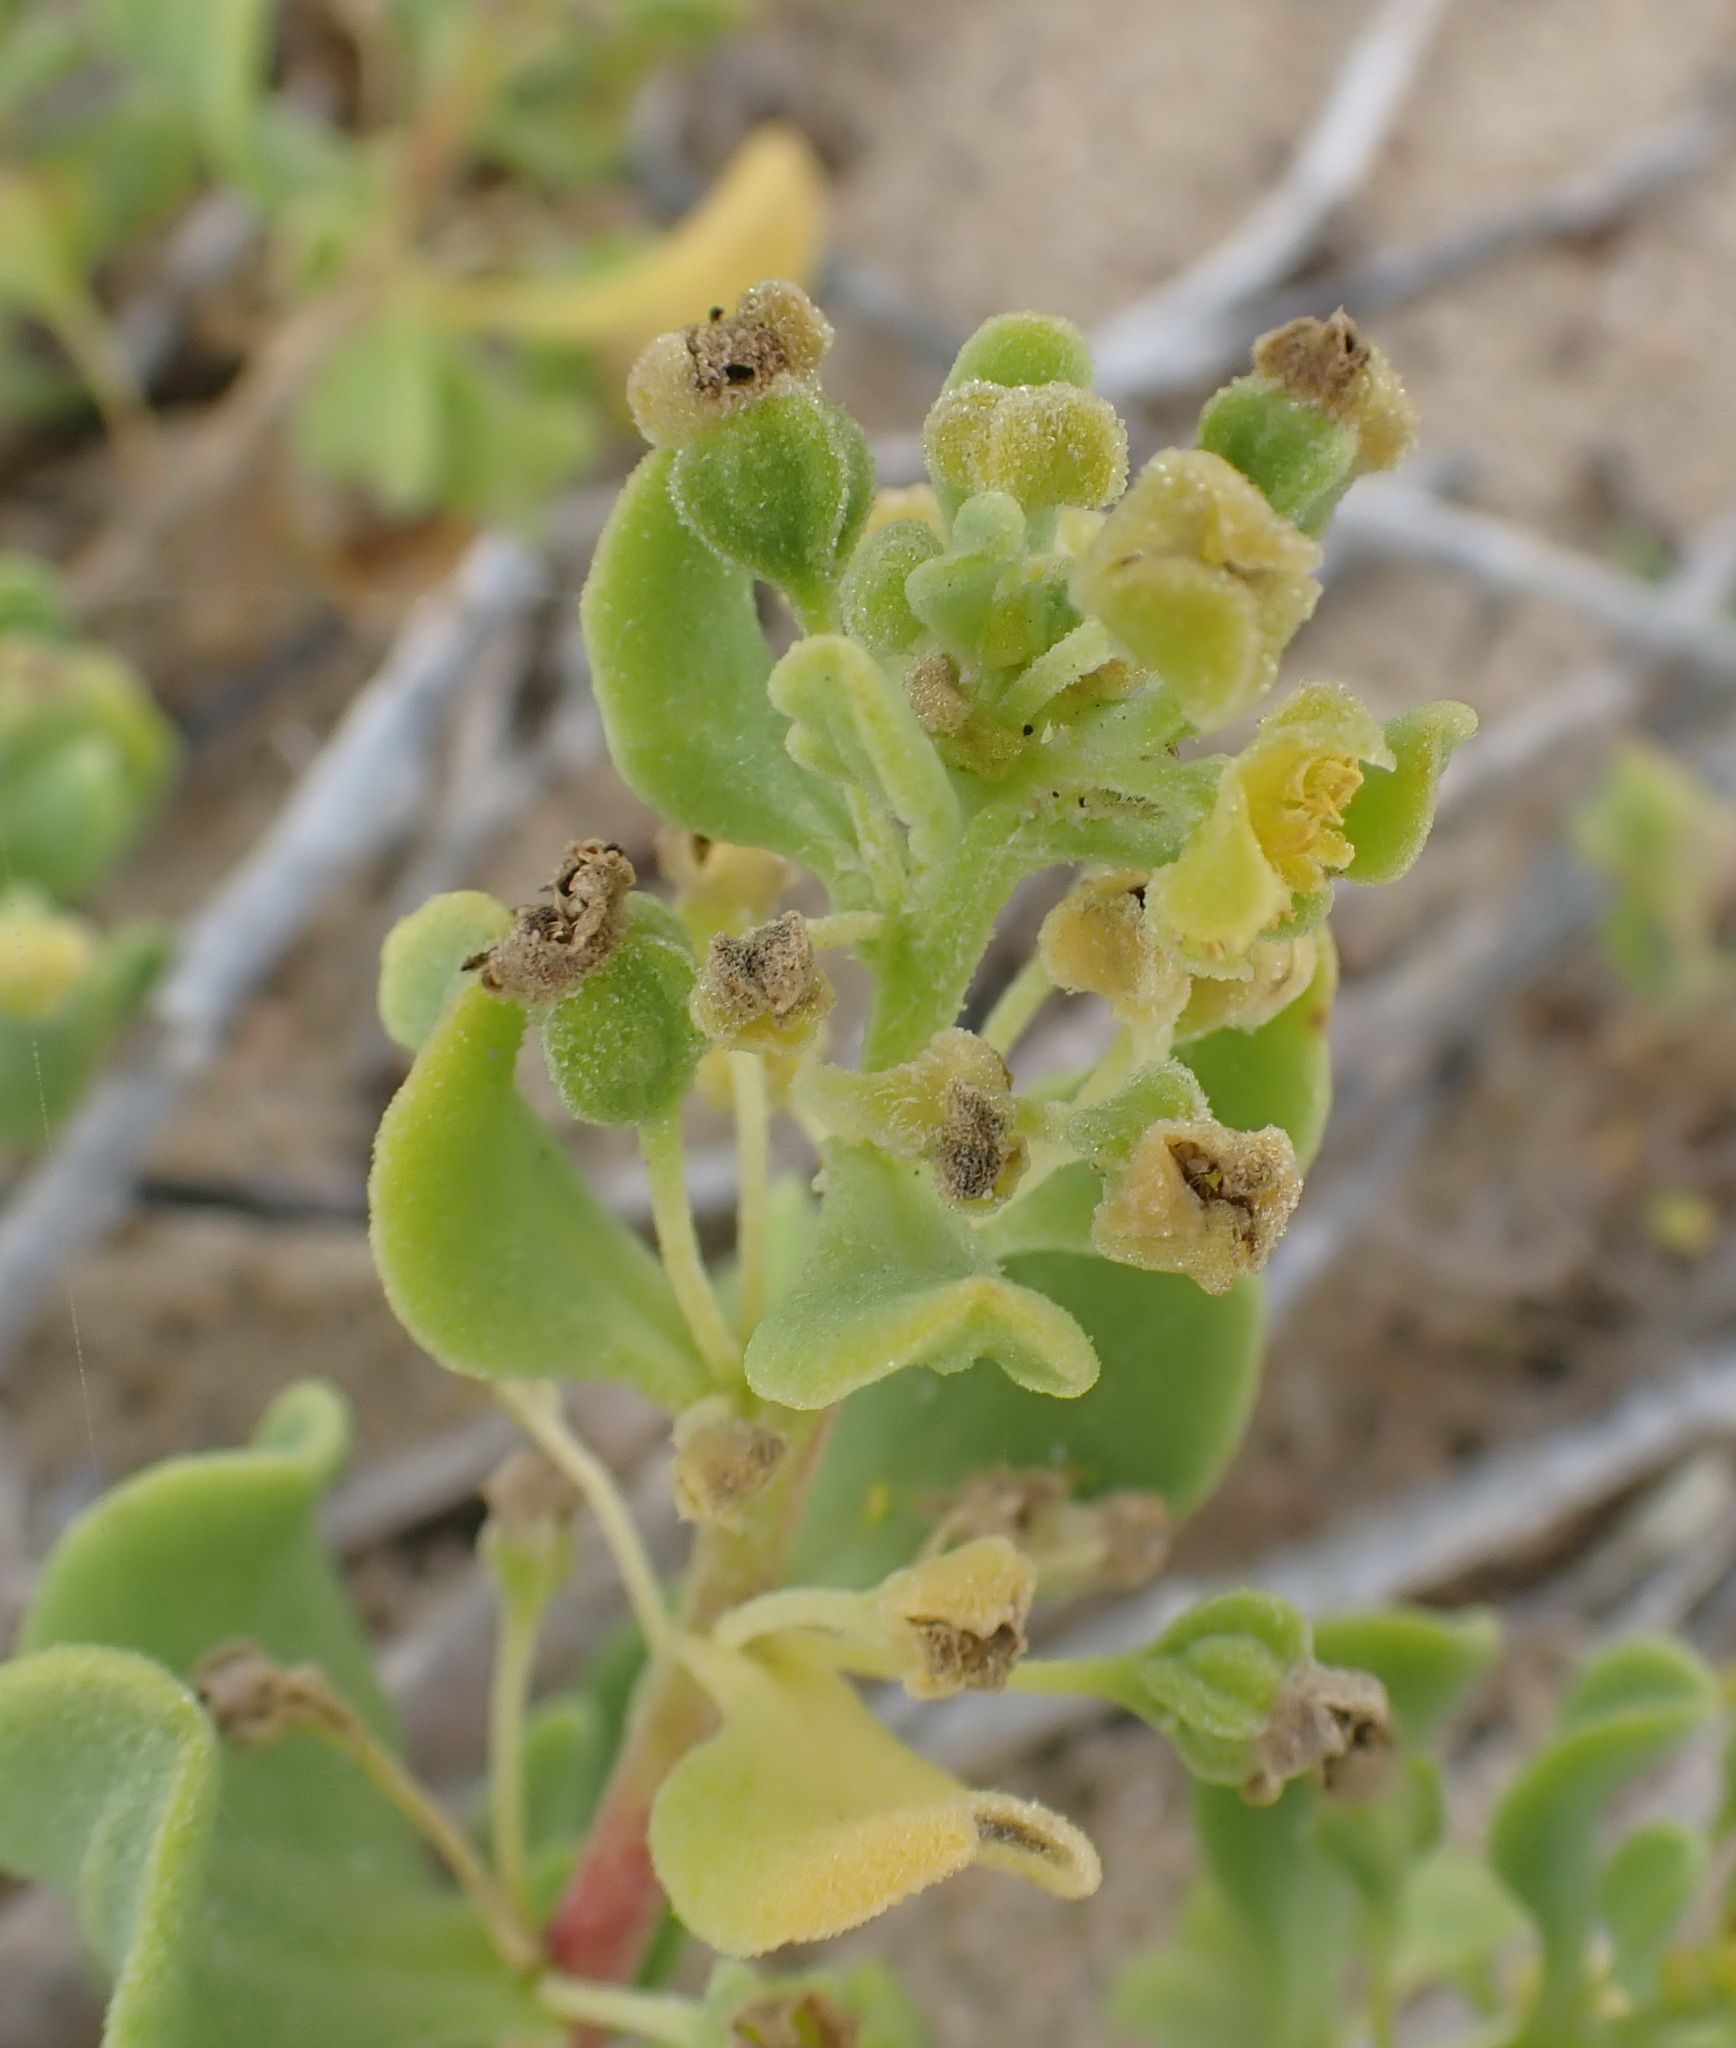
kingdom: Plantae
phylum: Tracheophyta
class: Magnoliopsida
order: Caryophyllales
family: Aizoaceae
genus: Tetragonia
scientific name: Tetragonia decumbens
